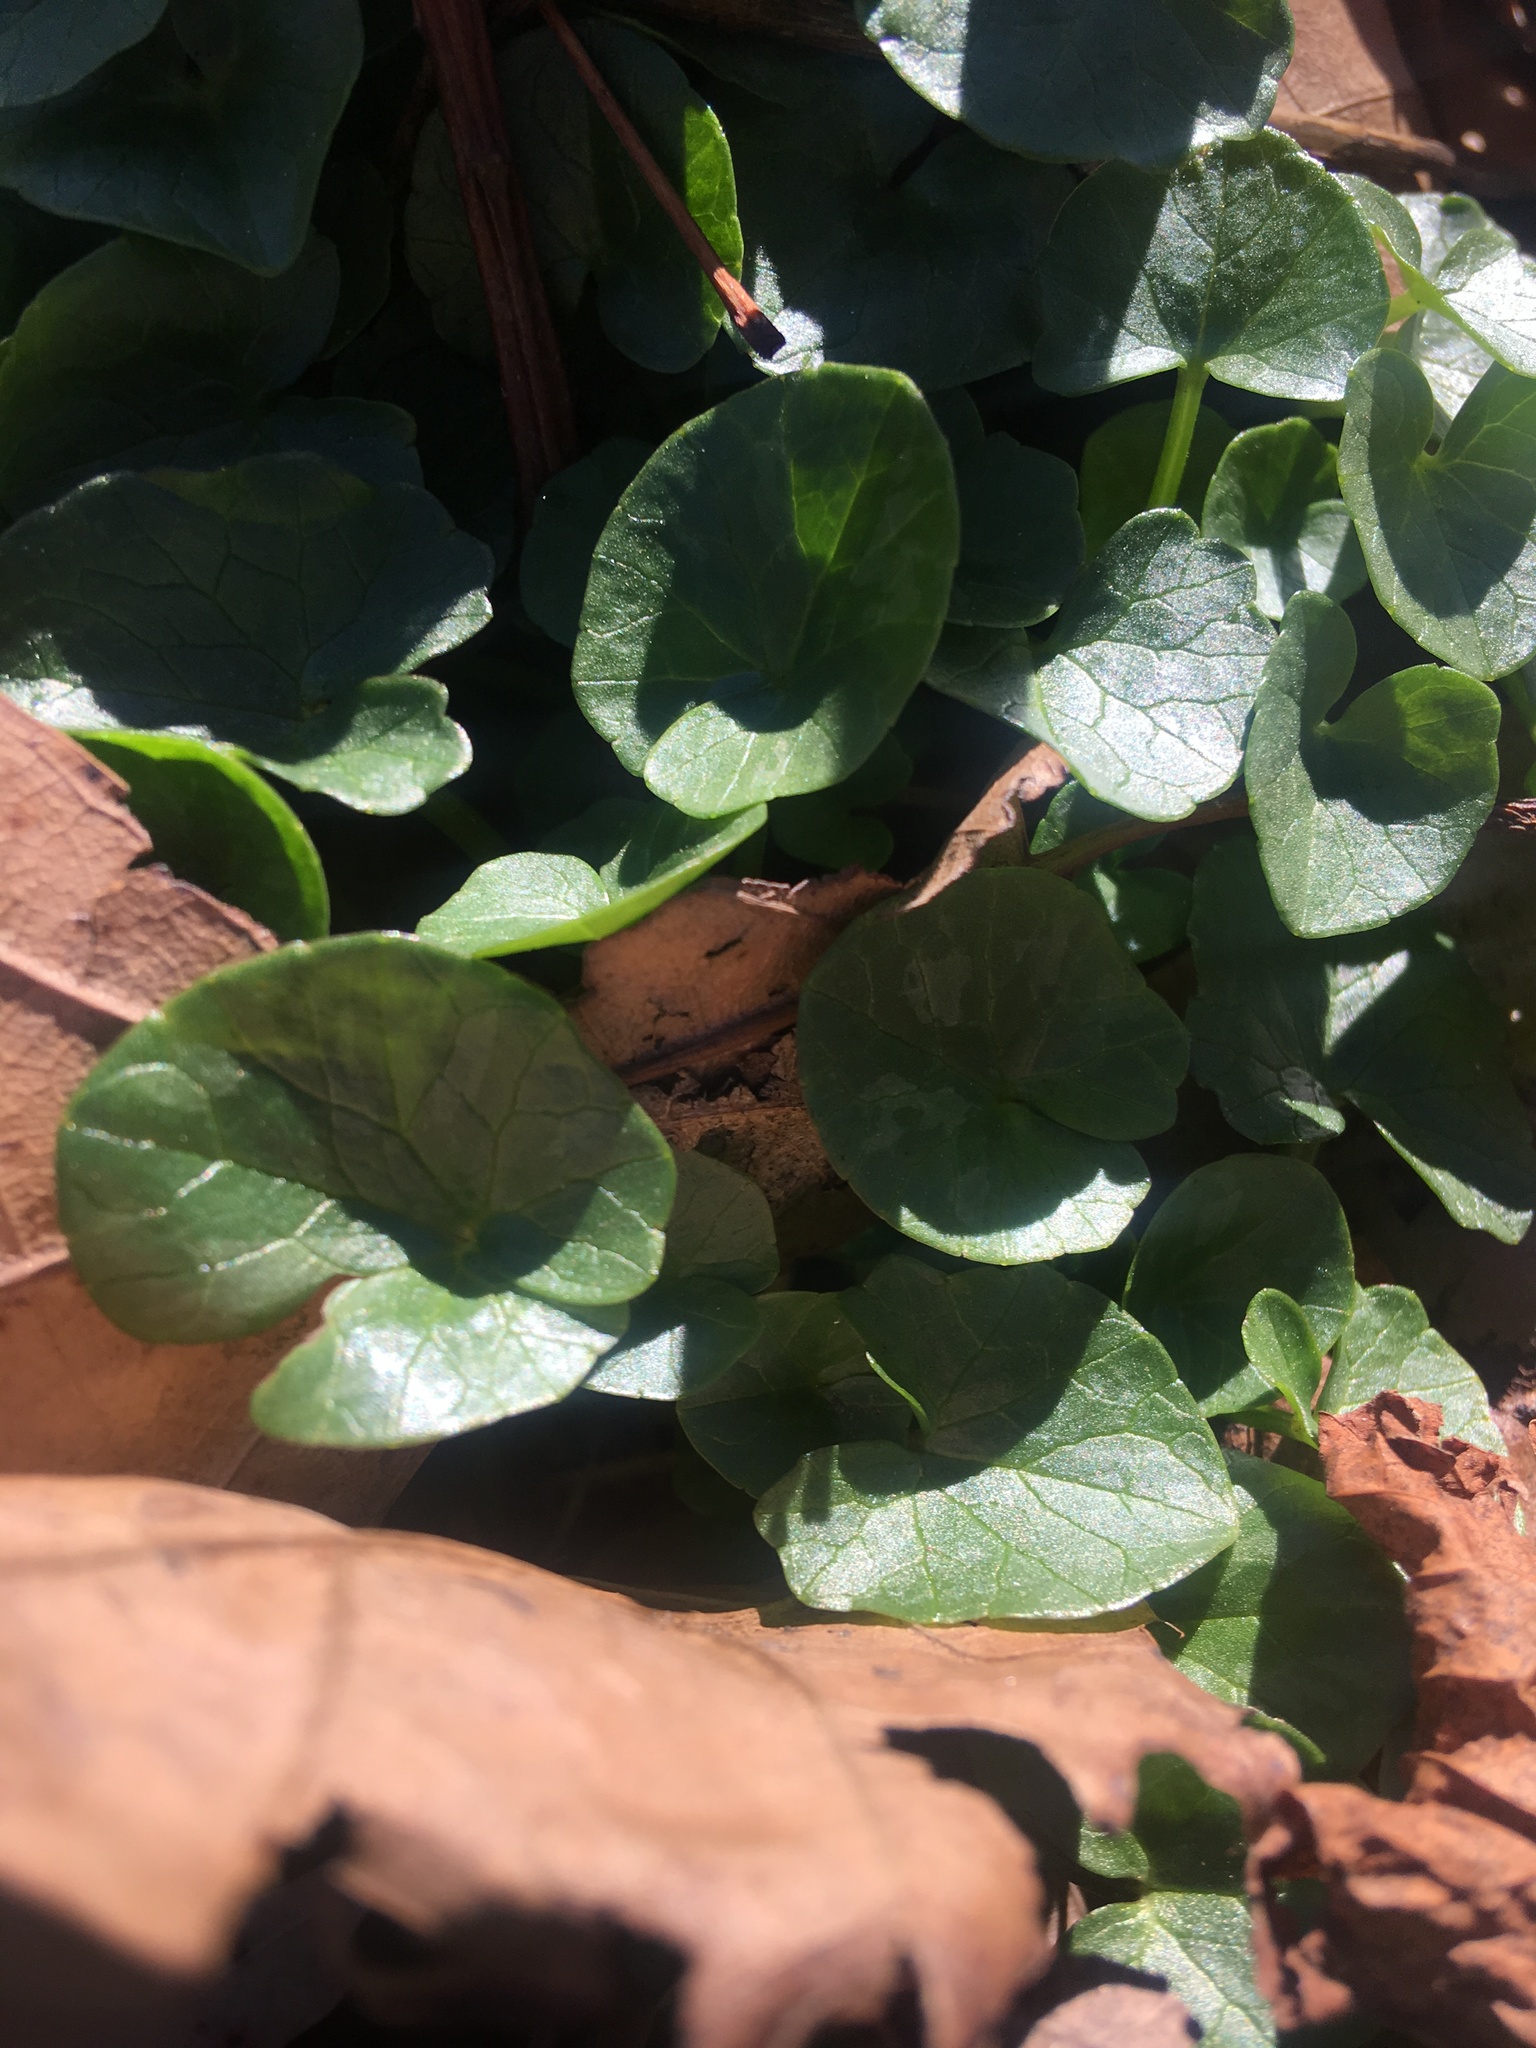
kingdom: Plantae
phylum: Tracheophyta
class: Magnoliopsida
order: Ranunculales
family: Ranunculaceae
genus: Ficaria
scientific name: Ficaria verna
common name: Lesser celandine
